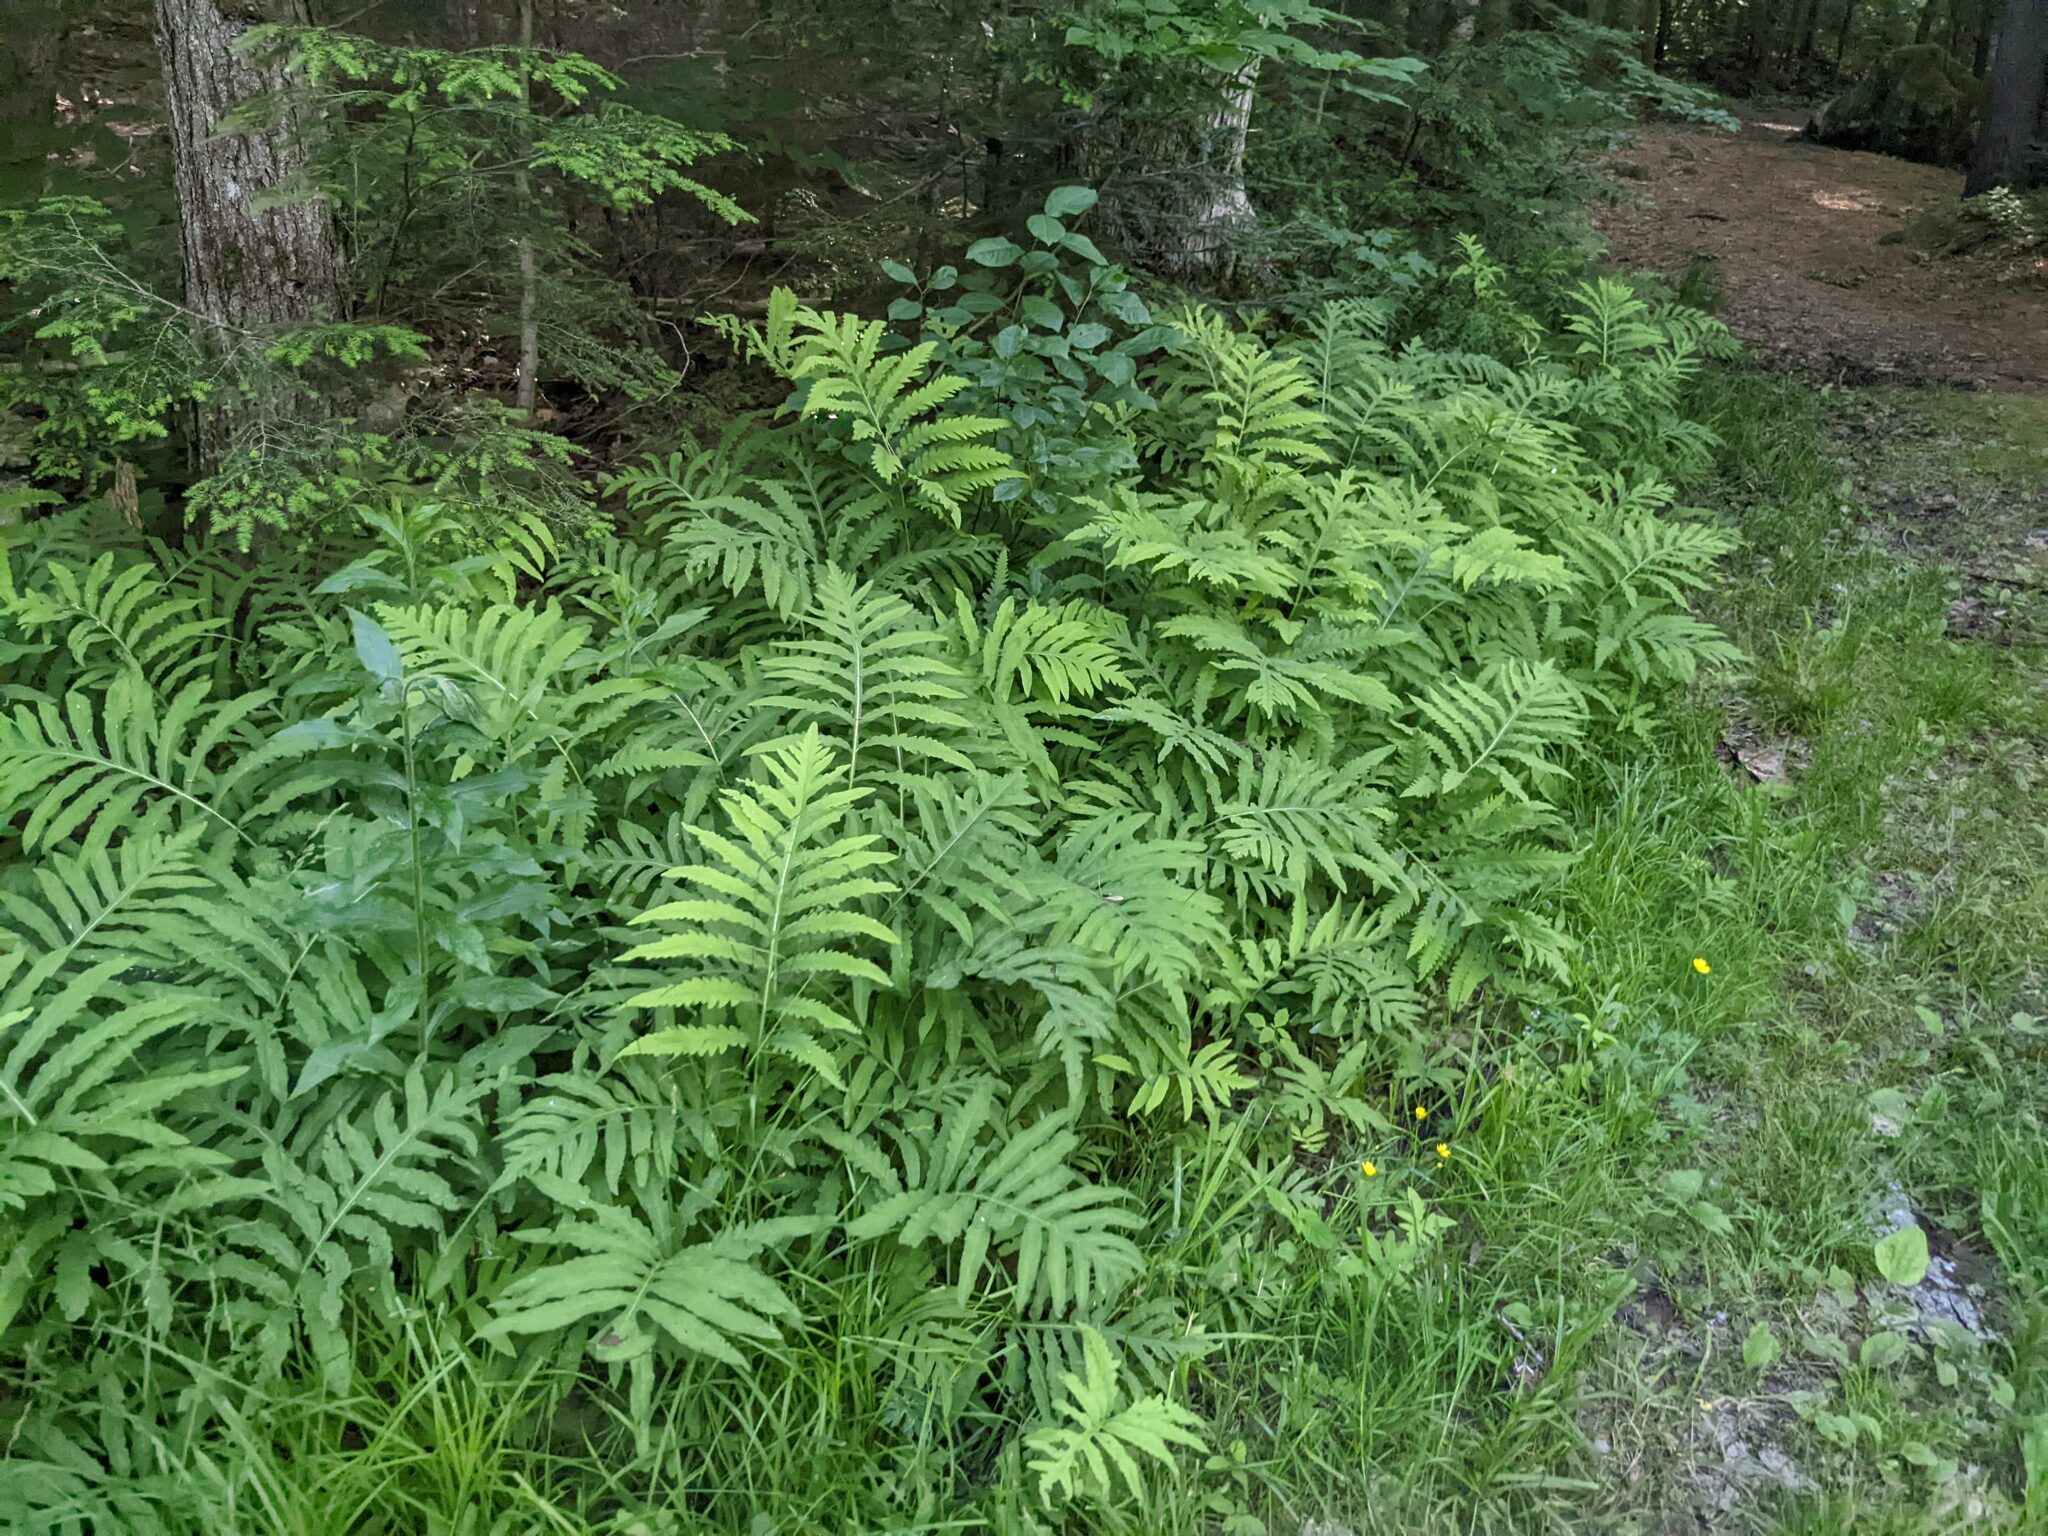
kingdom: Plantae
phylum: Tracheophyta
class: Polypodiopsida
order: Polypodiales
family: Onocleaceae
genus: Onoclea
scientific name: Onoclea sensibilis
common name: Sensitive fern
